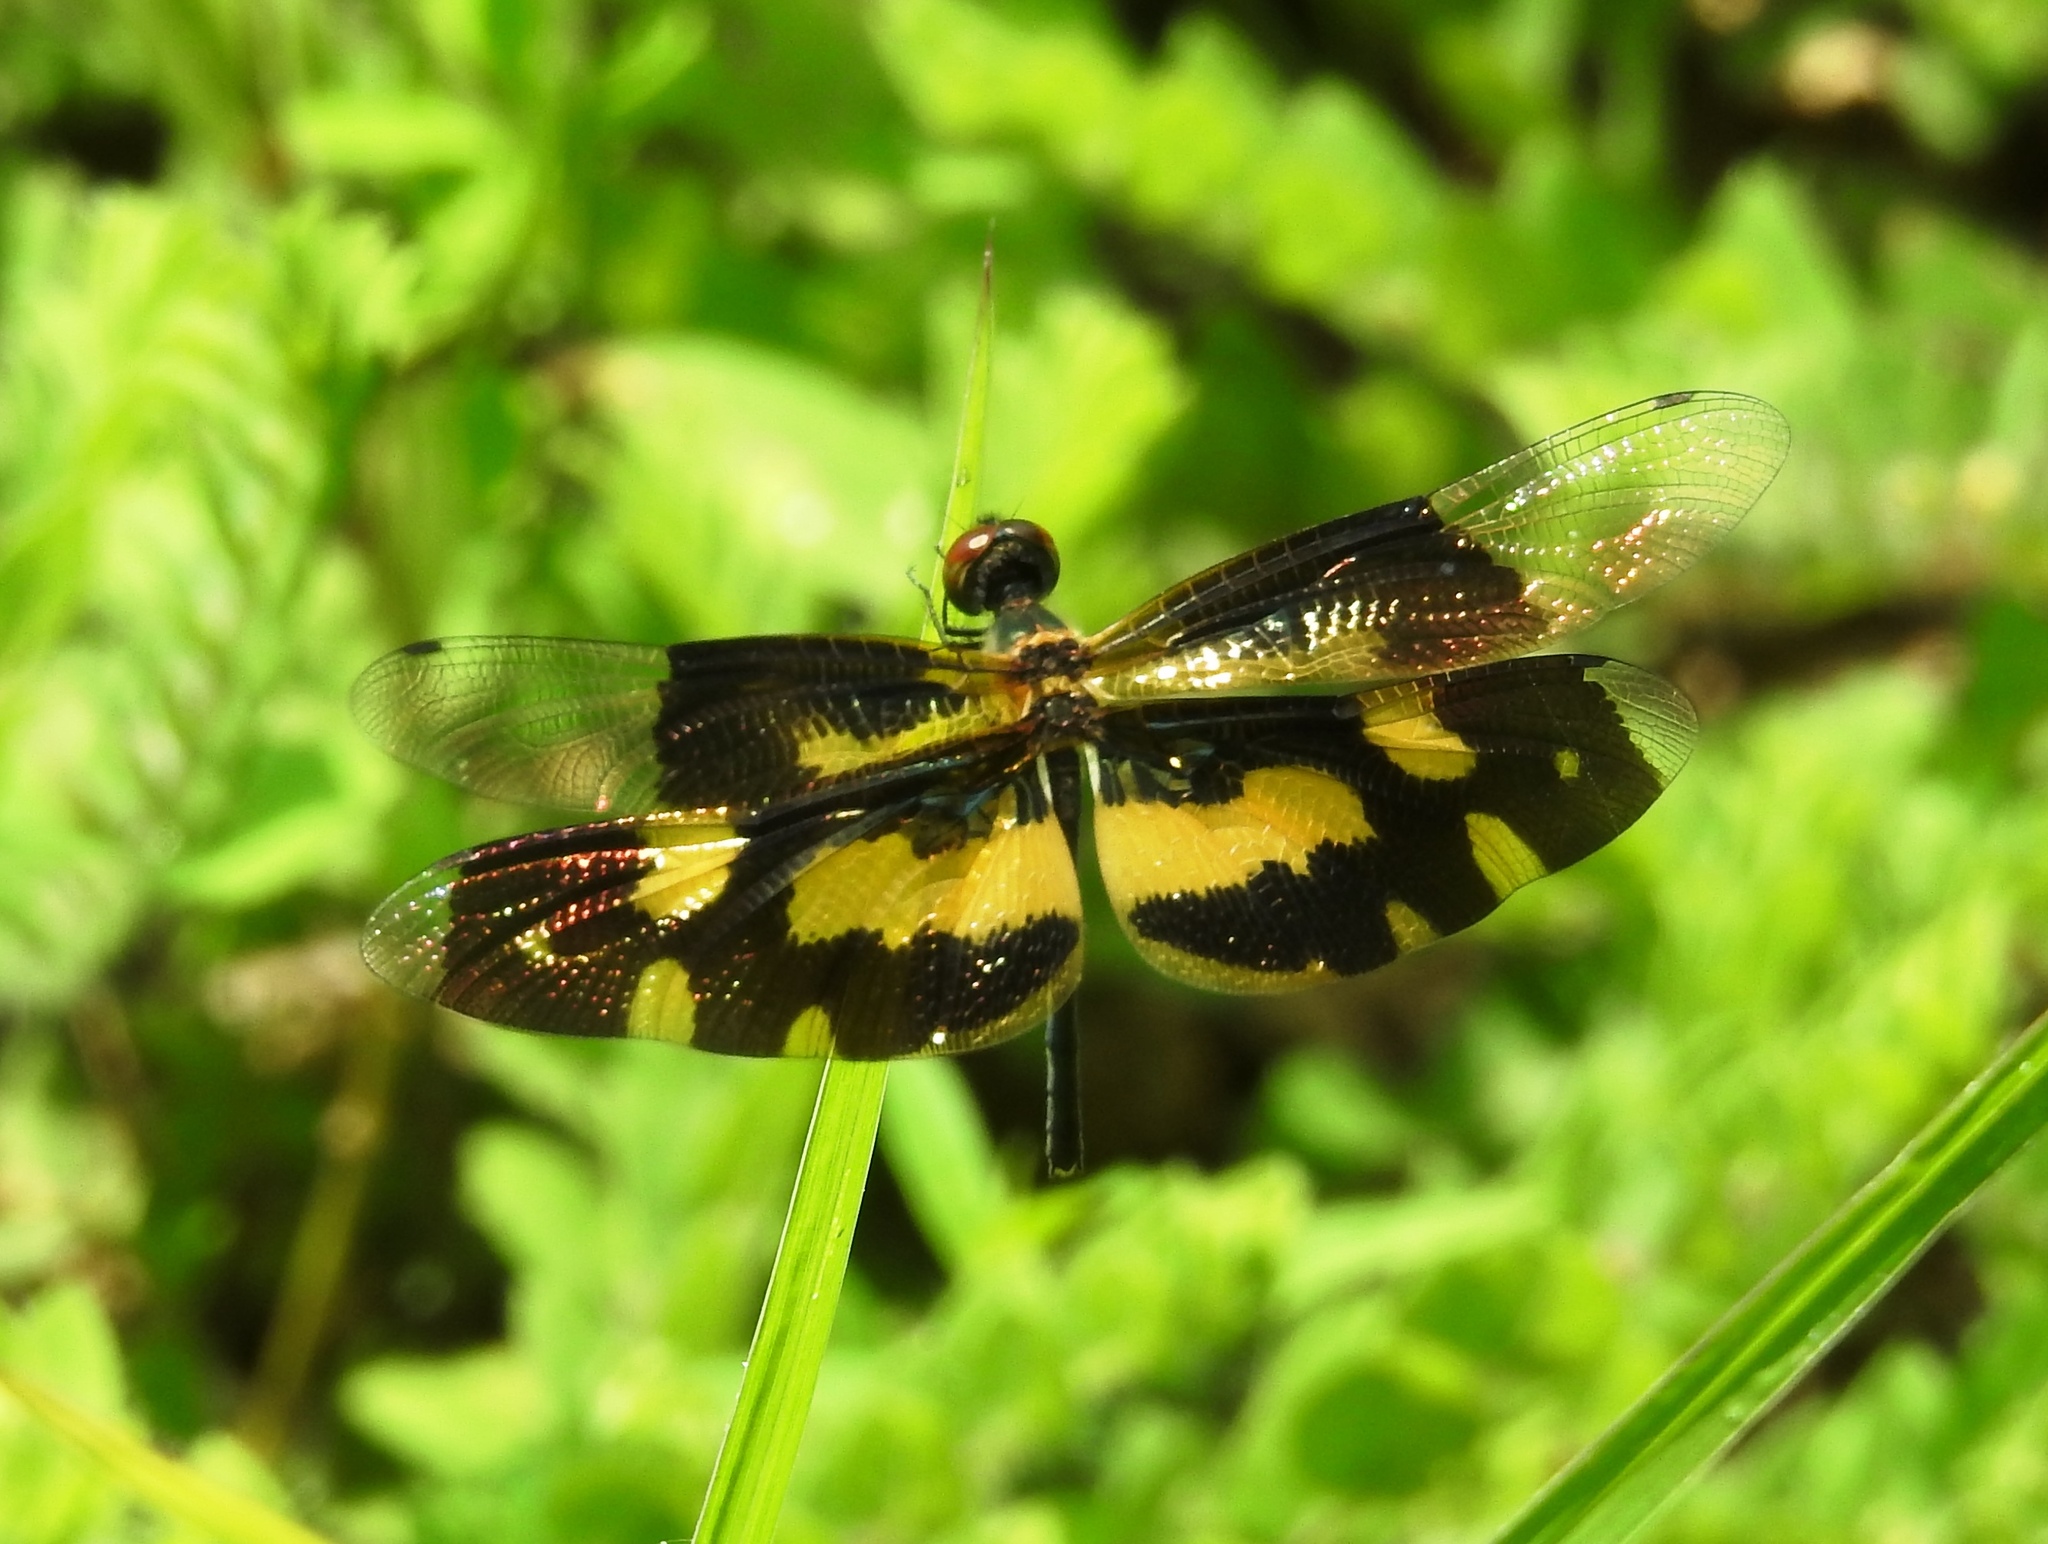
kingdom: Animalia
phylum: Arthropoda
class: Insecta
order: Odonata
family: Libellulidae
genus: Rhyothemis
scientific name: Rhyothemis variegata
